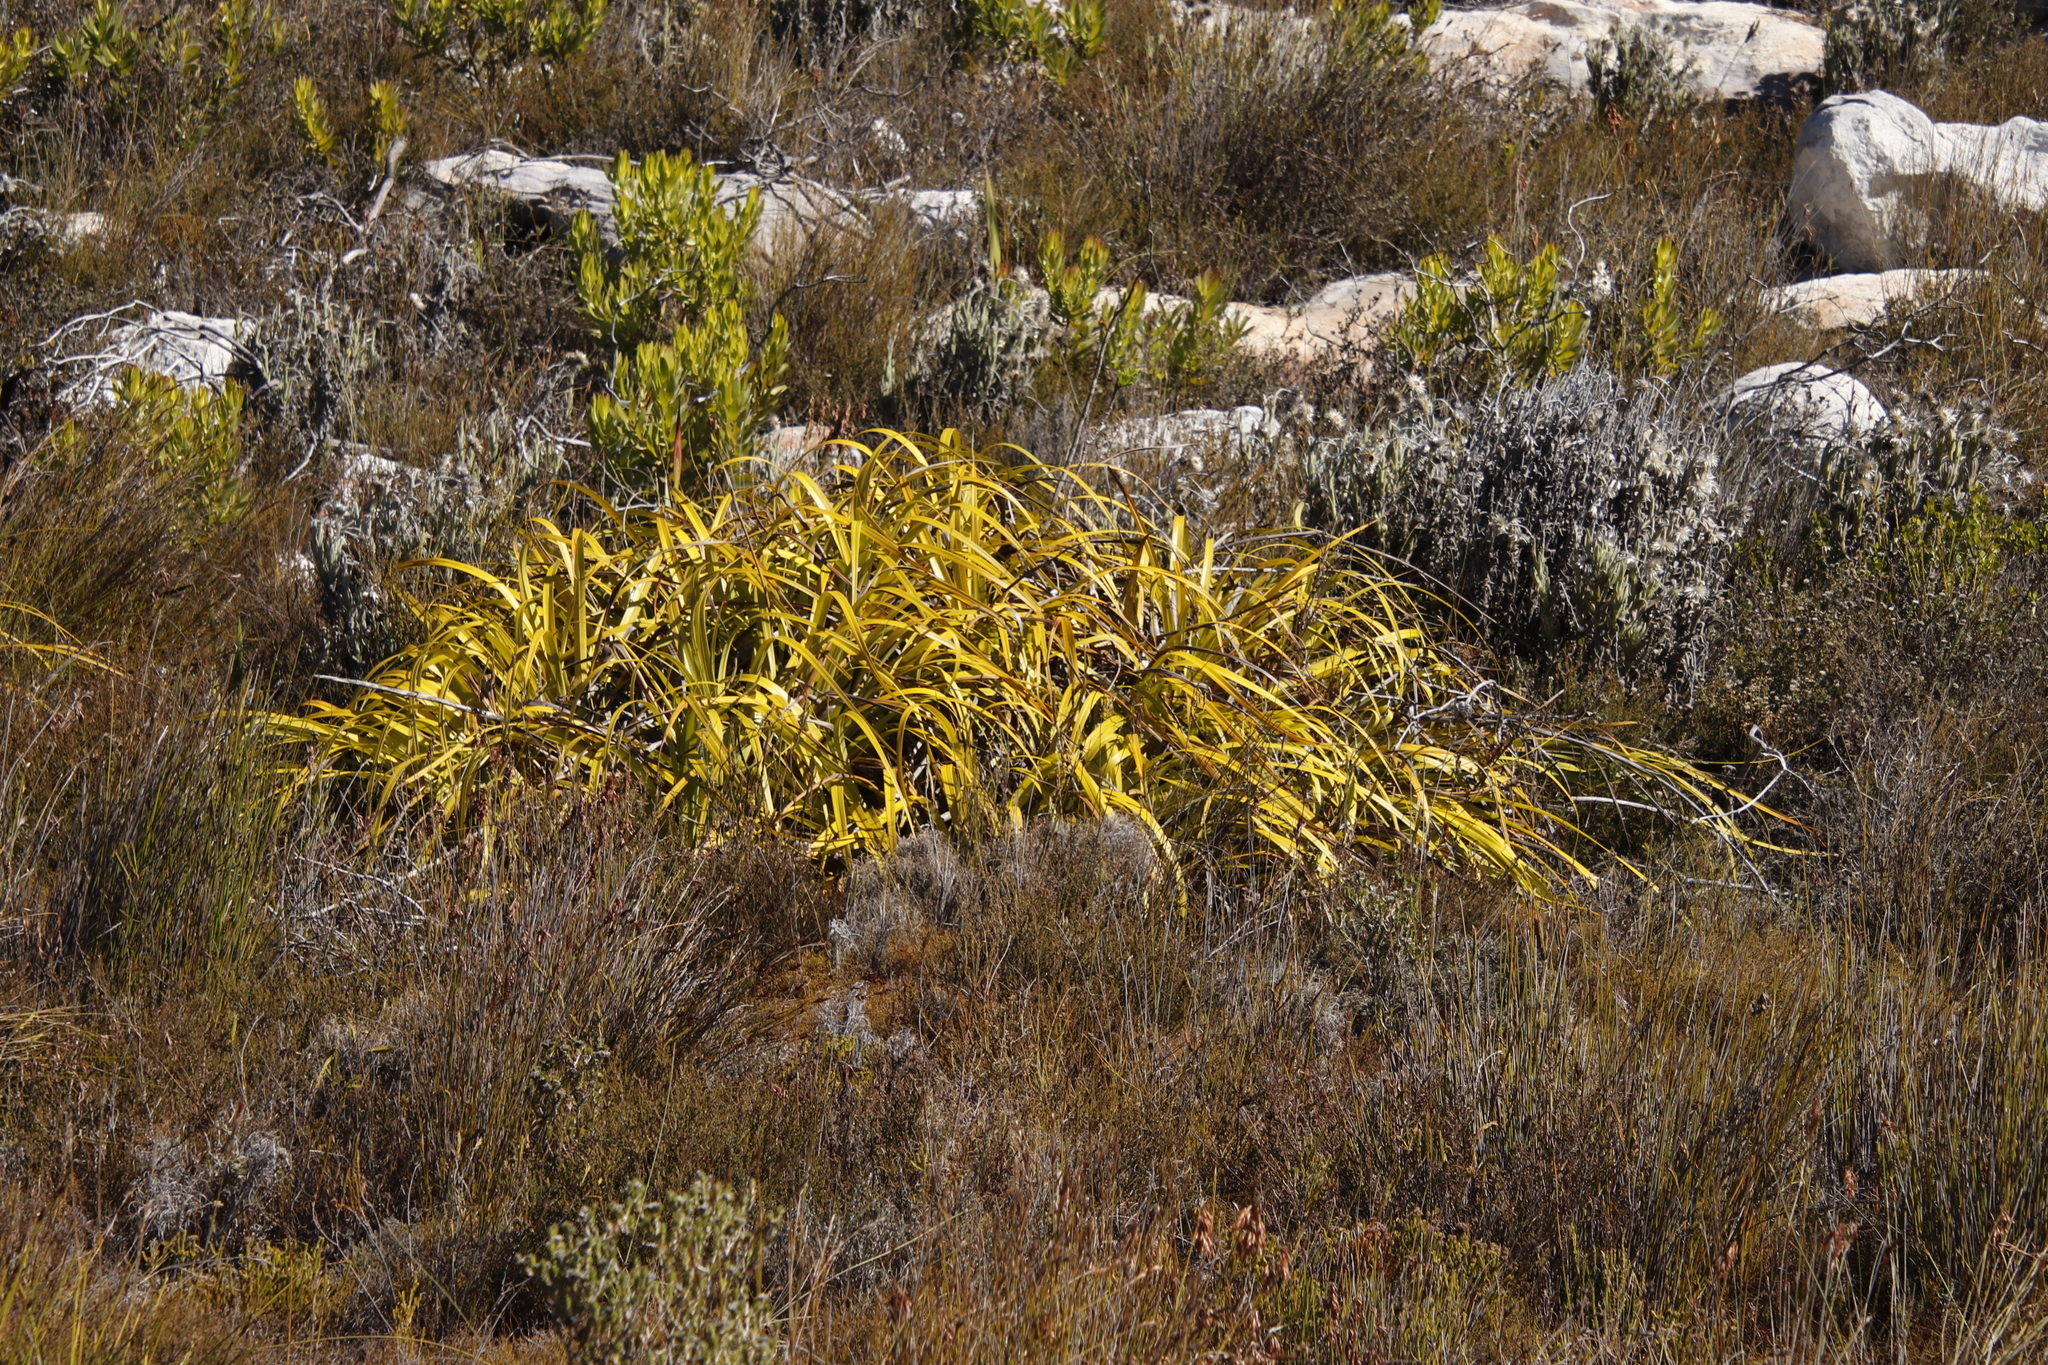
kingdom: Plantae
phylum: Tracheophyta
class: Liliopsida
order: Poales
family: Cyperaceae
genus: Tetraria
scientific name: Tetraria thermalis
